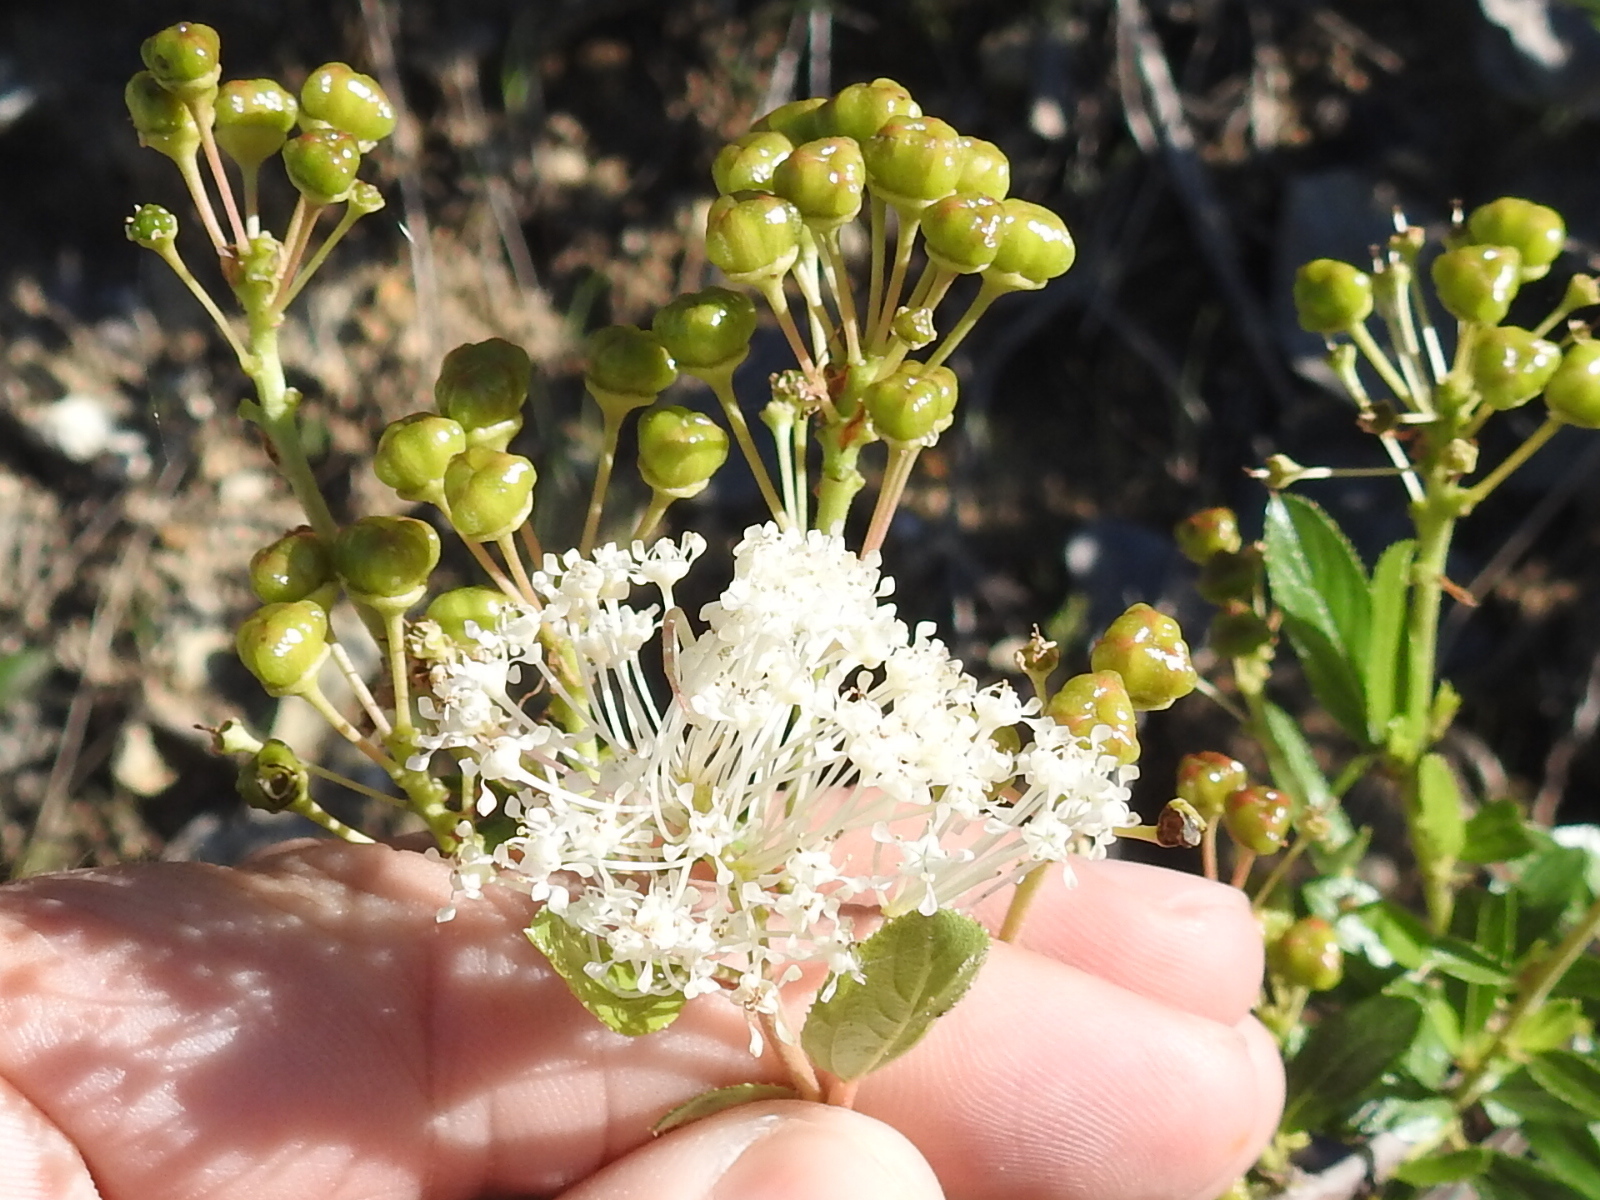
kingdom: Plantae
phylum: Tracheophyta
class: Magnoliopsida
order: Rosales
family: Rhamnaceae
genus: Ceanothus
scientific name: Ceanothus herbaceus
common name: Inland ceanothus
